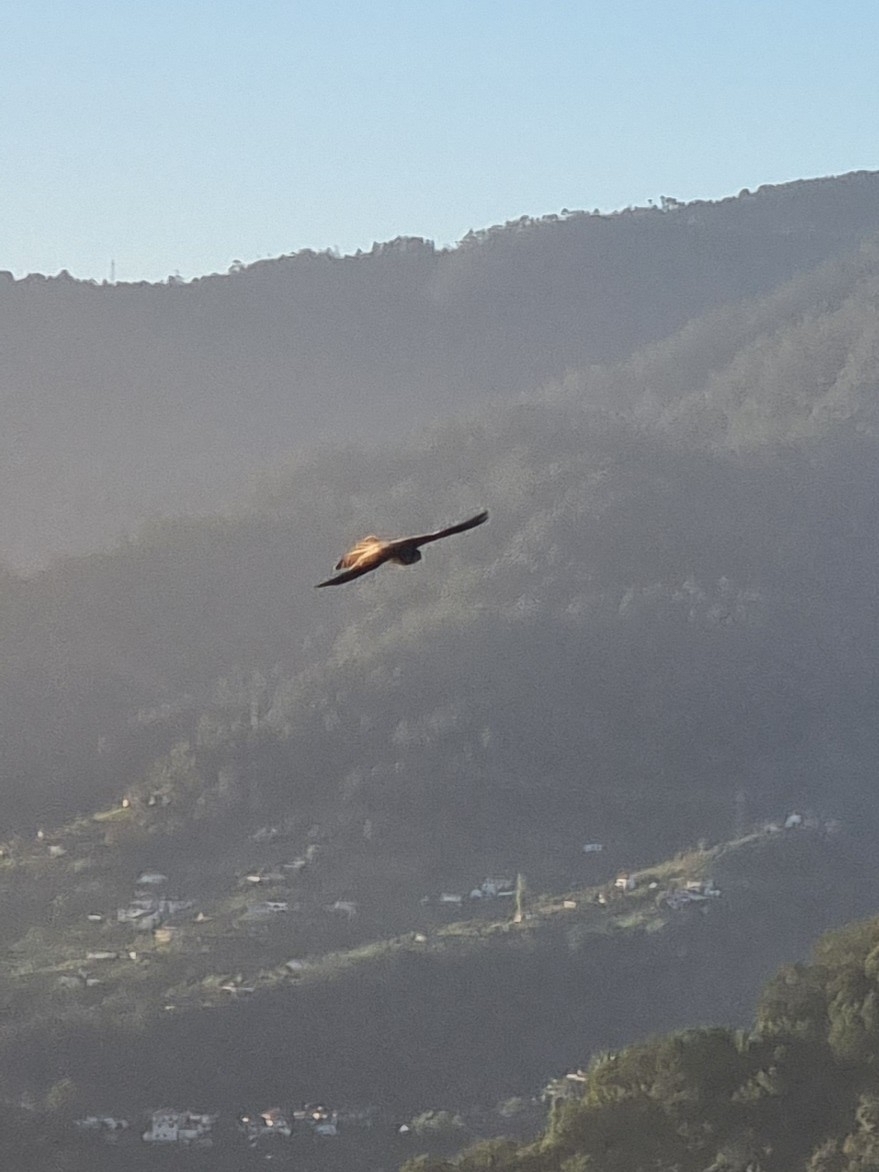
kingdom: Animalia
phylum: Chordata
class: Aves
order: Falconiformes
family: Falconidae
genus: Falco
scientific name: Falco tinnunculus
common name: Common kestrel
